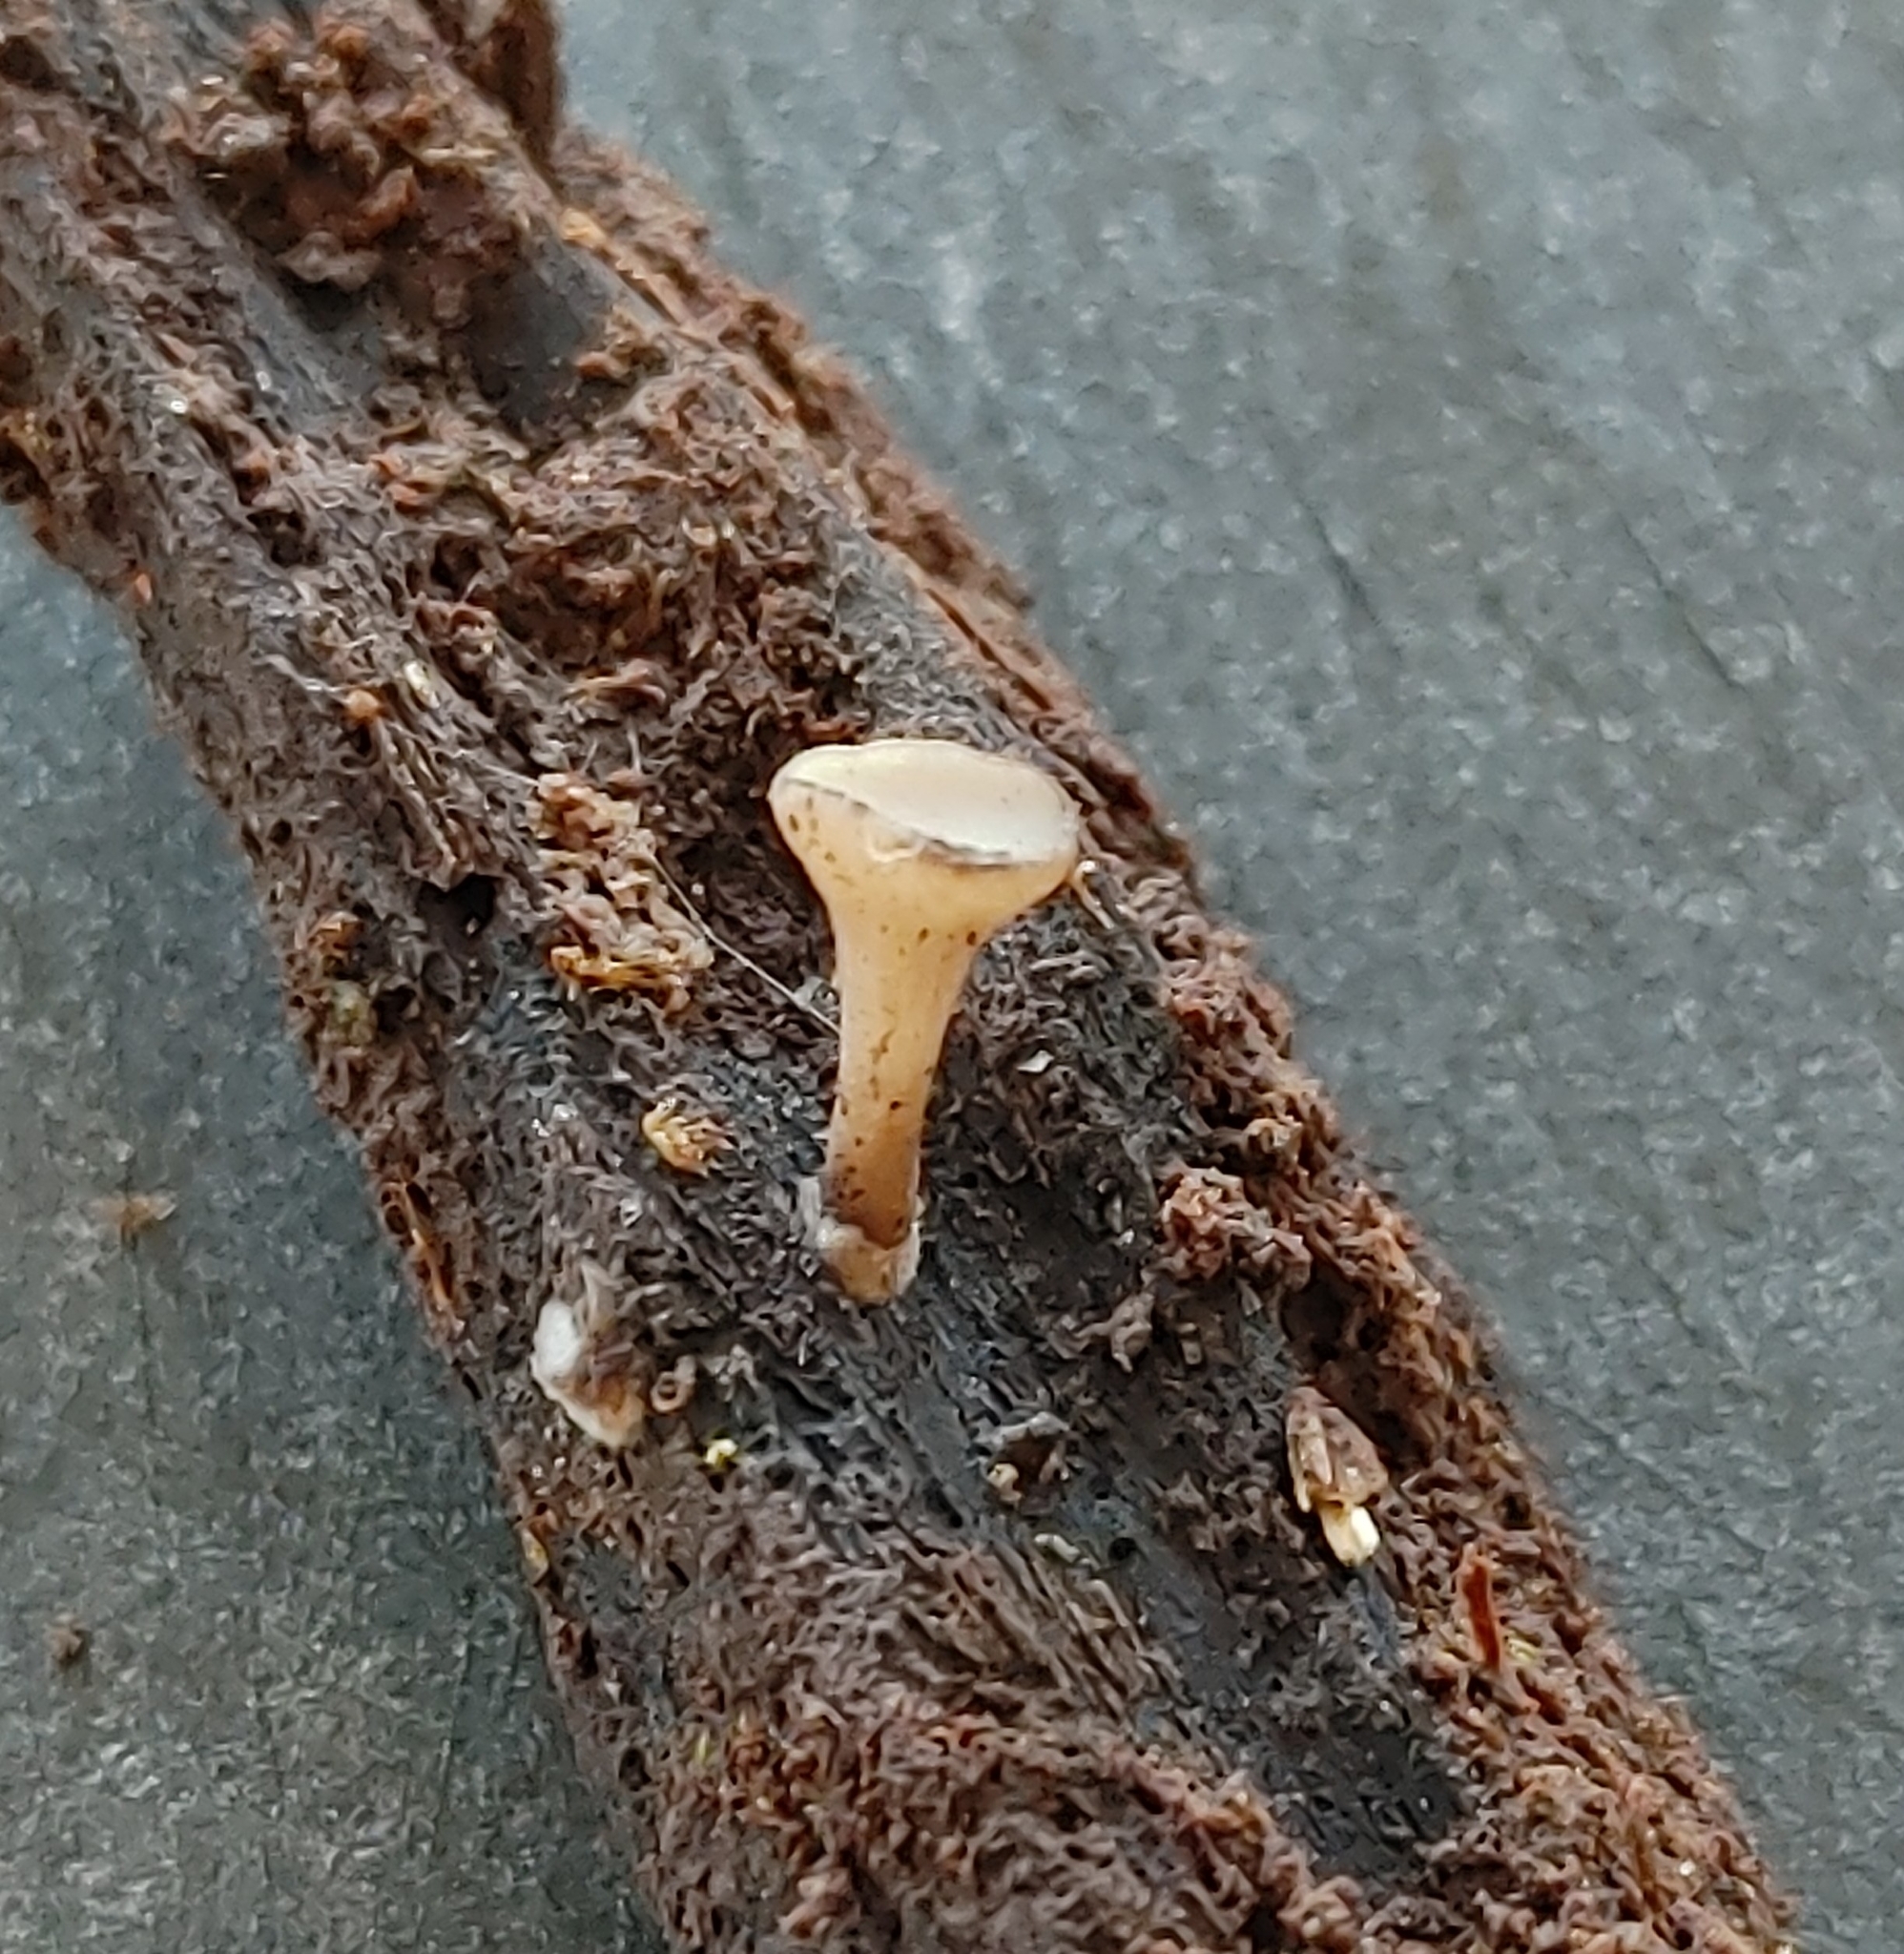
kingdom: Fungi
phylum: Ascomycota
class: Leotiomycetes
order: Helotiales
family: Helotiaceae
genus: Tatraea
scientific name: Tatraea macrospora
